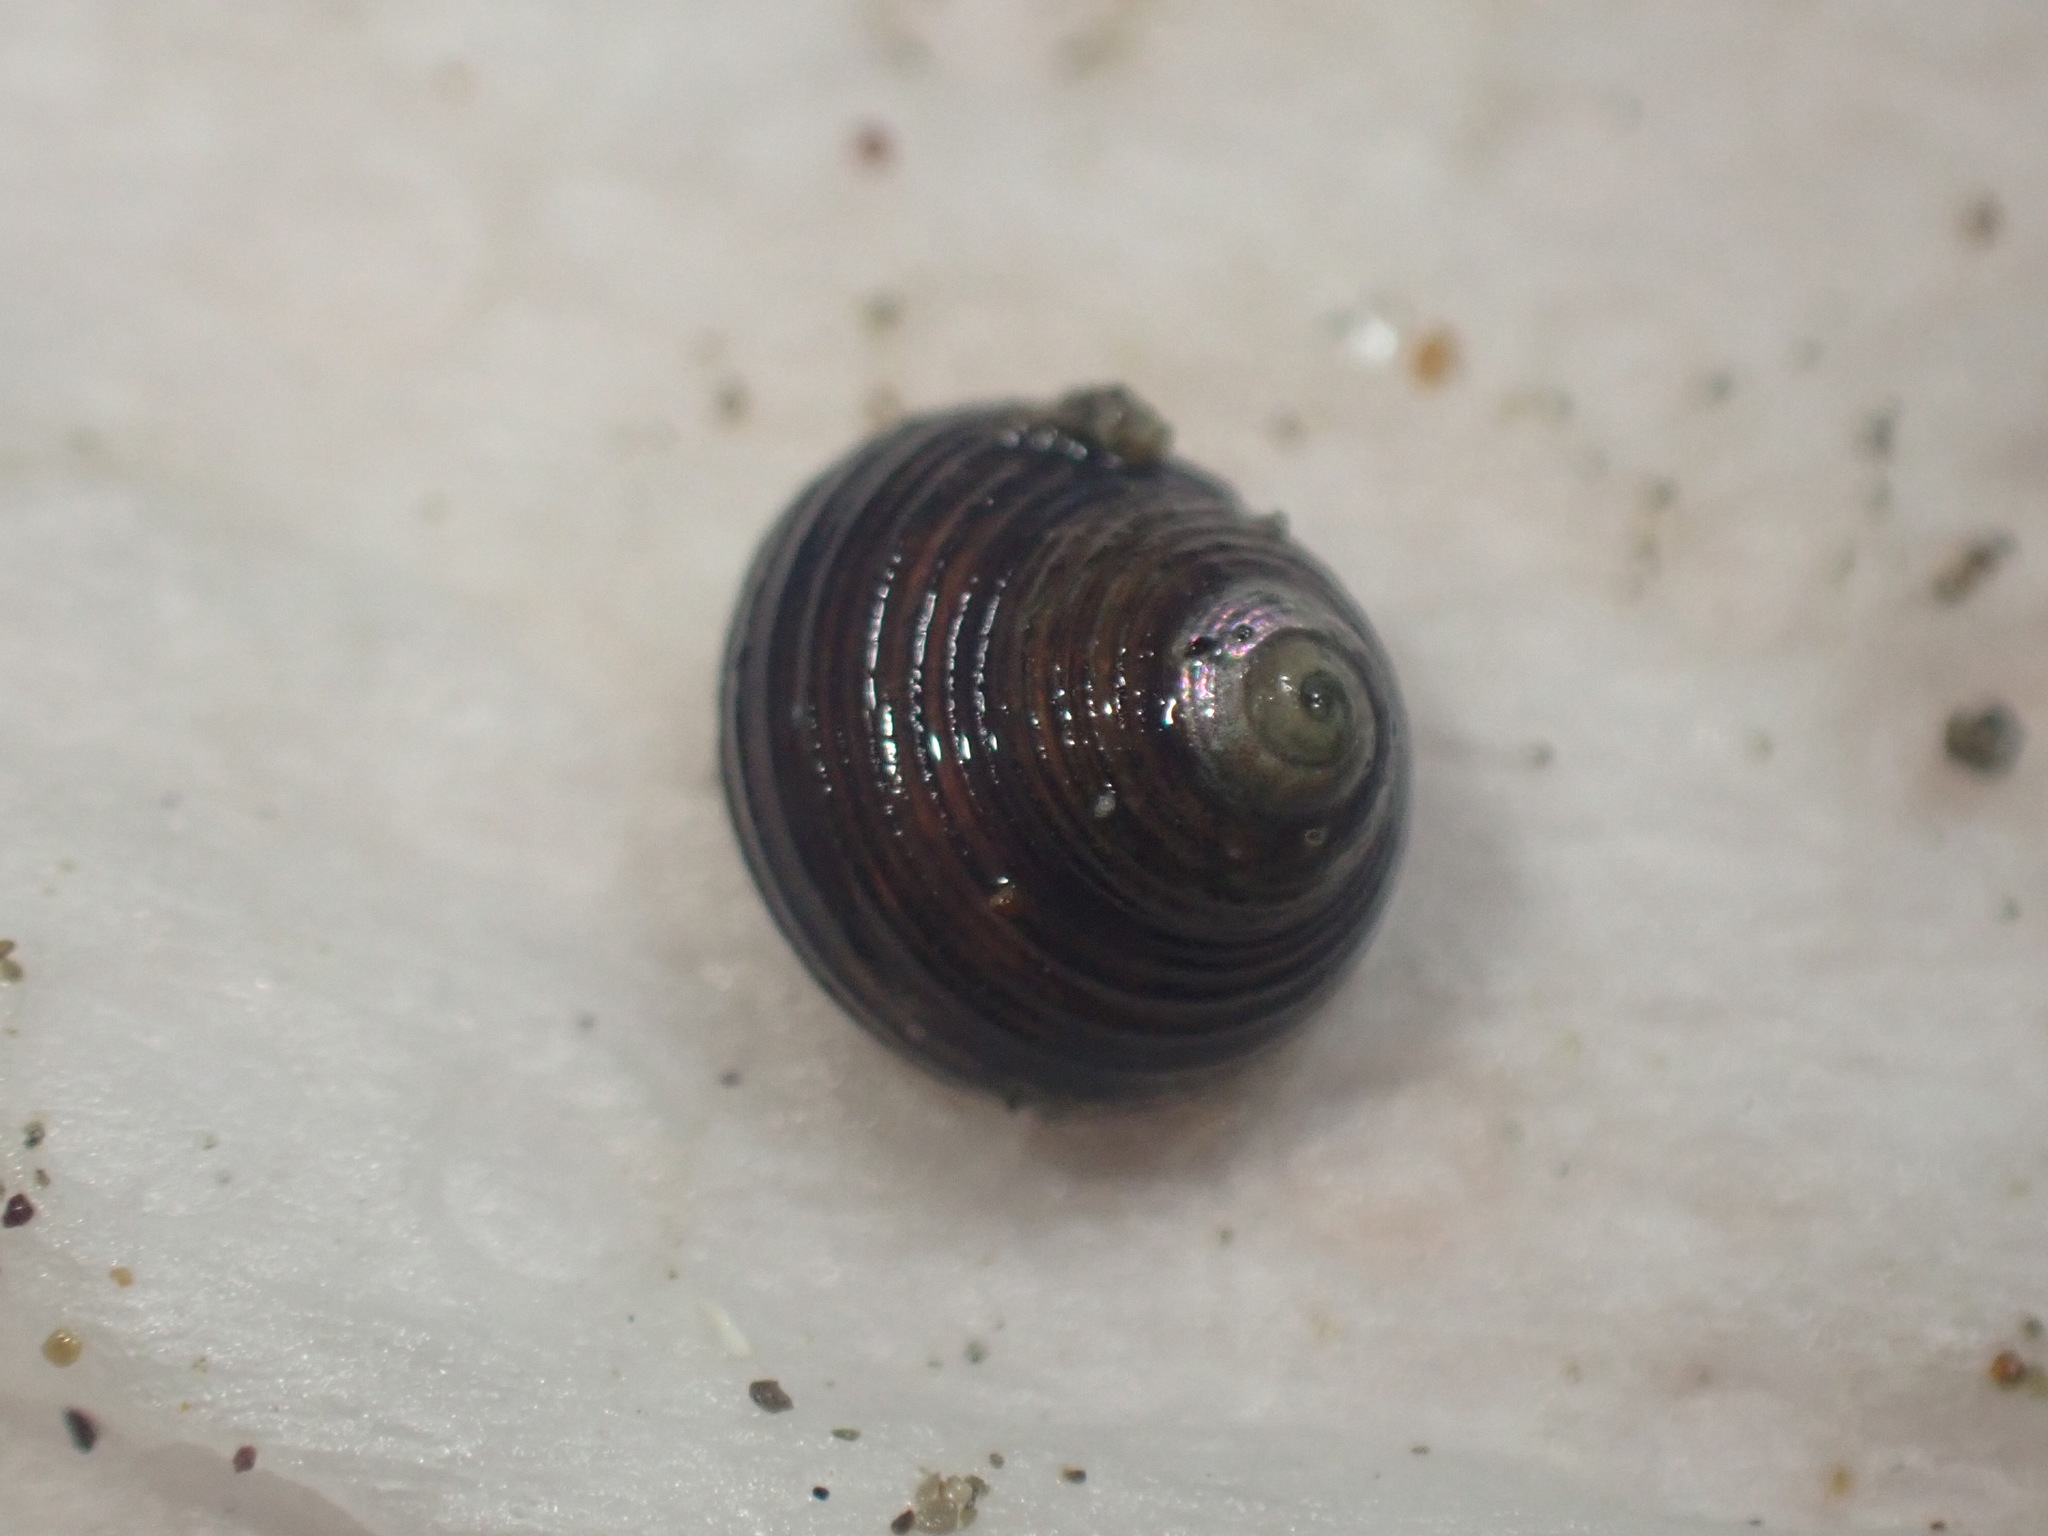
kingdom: Animalia
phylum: Mollusca
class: Gastropoda
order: Trochida
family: Trochidae
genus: Micrelenchus
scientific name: Micrelenchus huttonii
